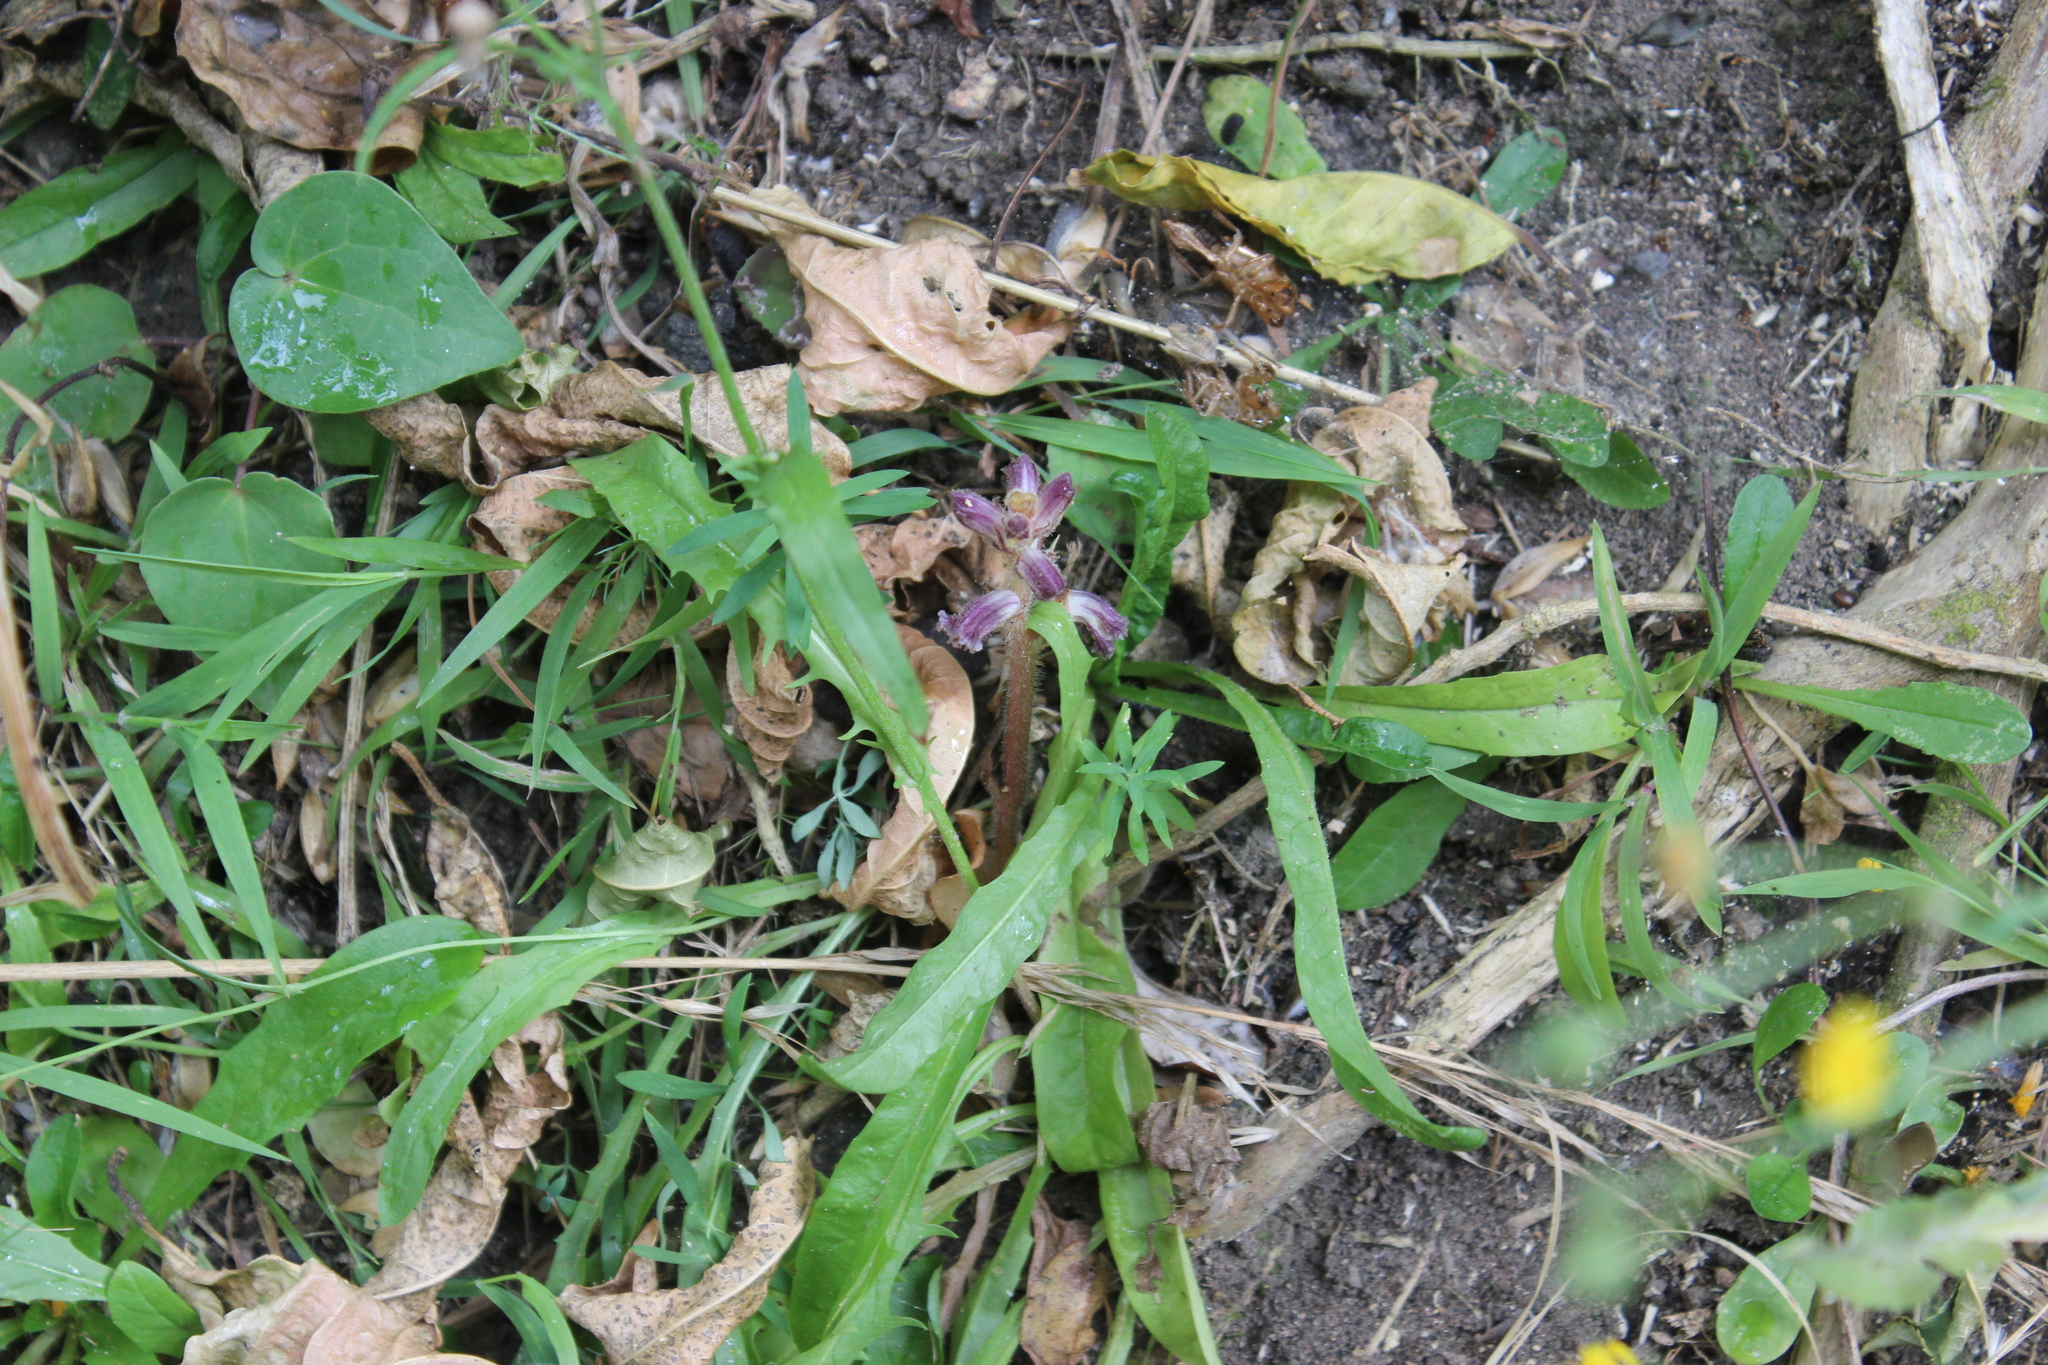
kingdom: Plantae
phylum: Tracheophyta
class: Magnoliopsida
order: Asterales
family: Asteraceae
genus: Crepis
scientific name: Crepis capillaris
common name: Smooth hawksbeard
